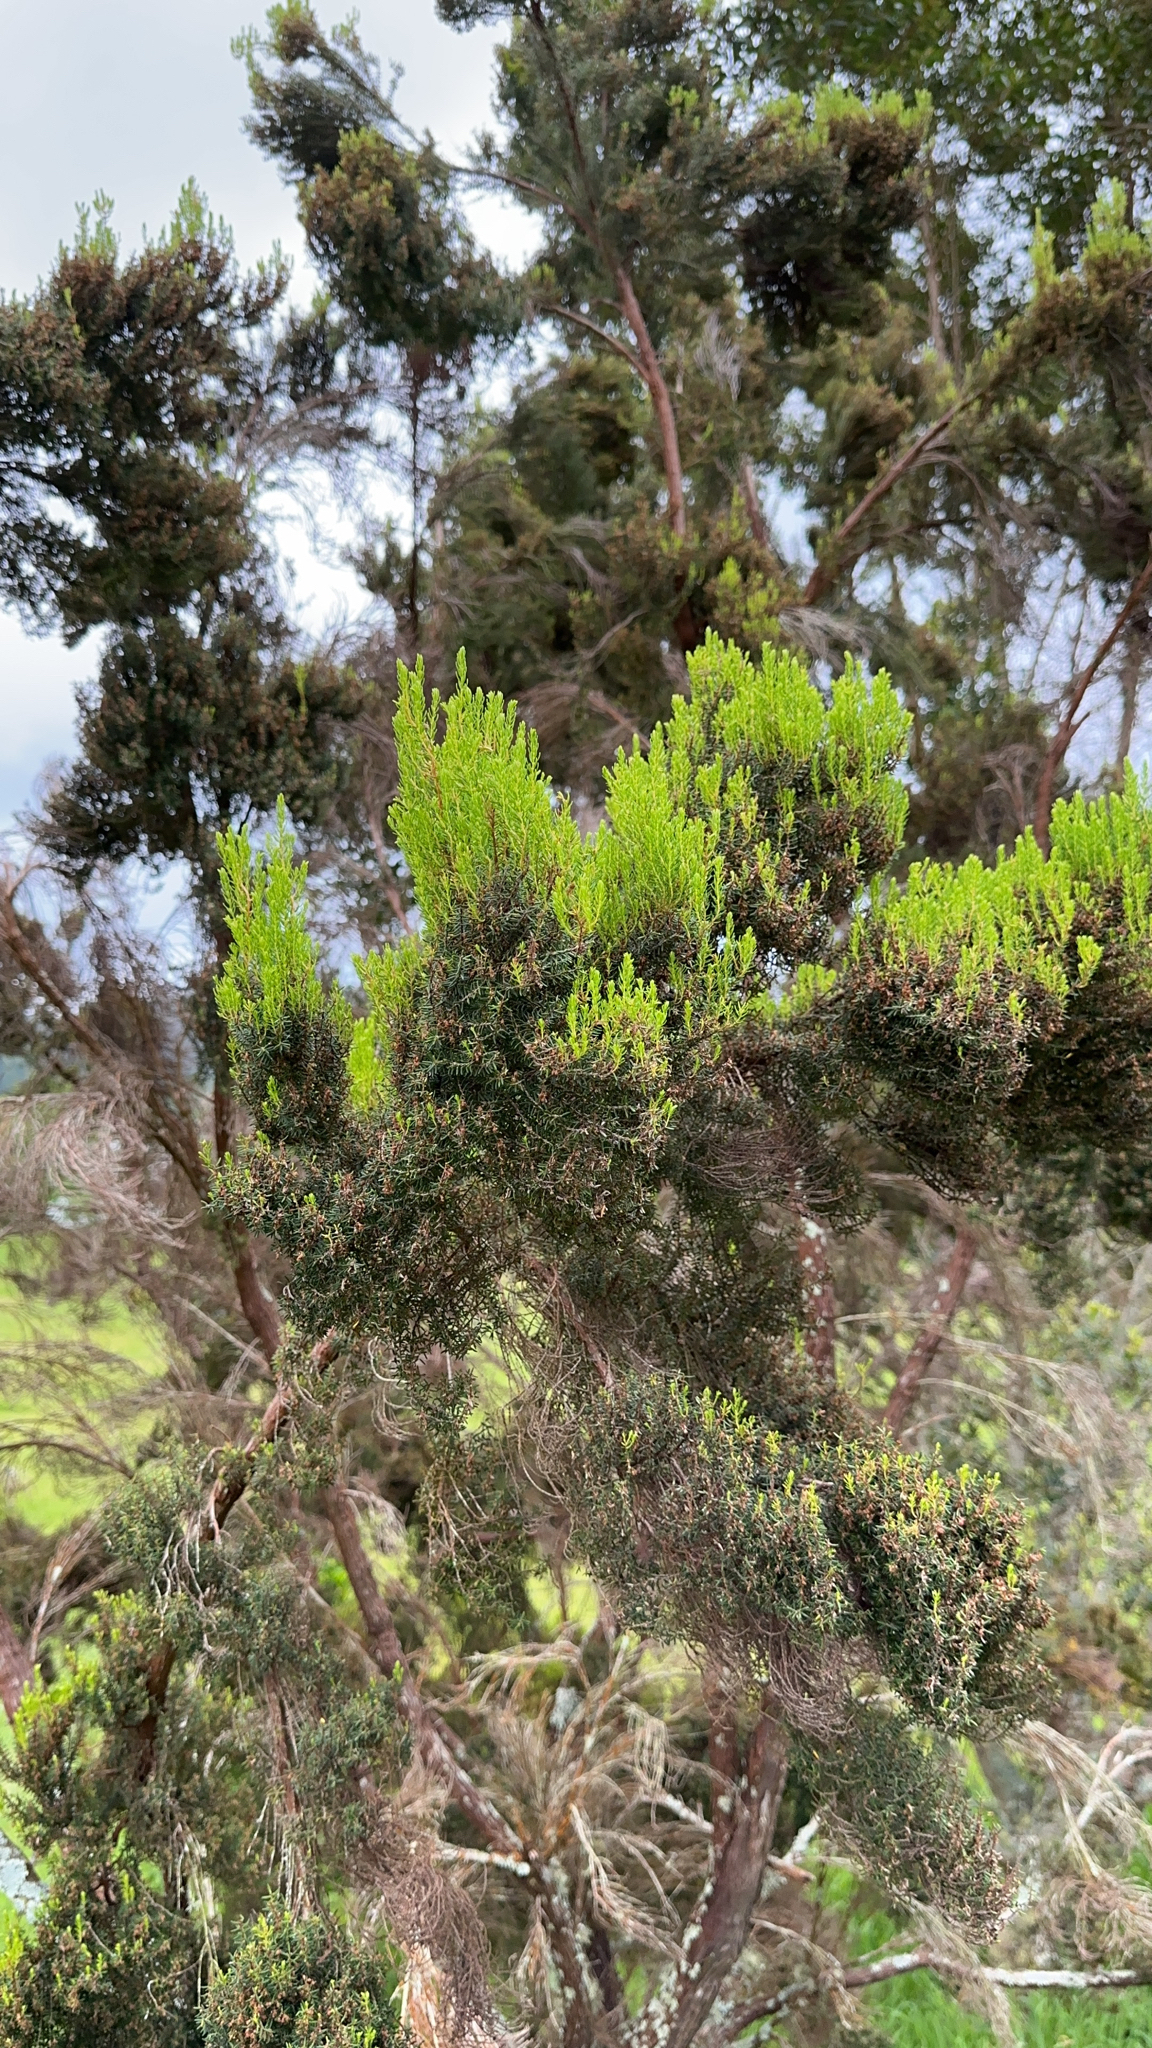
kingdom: Plantae
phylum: Tracheophyta
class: Magnoliopsida
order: Ericales
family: Ericaceae
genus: Erica
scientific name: Erica azorica
